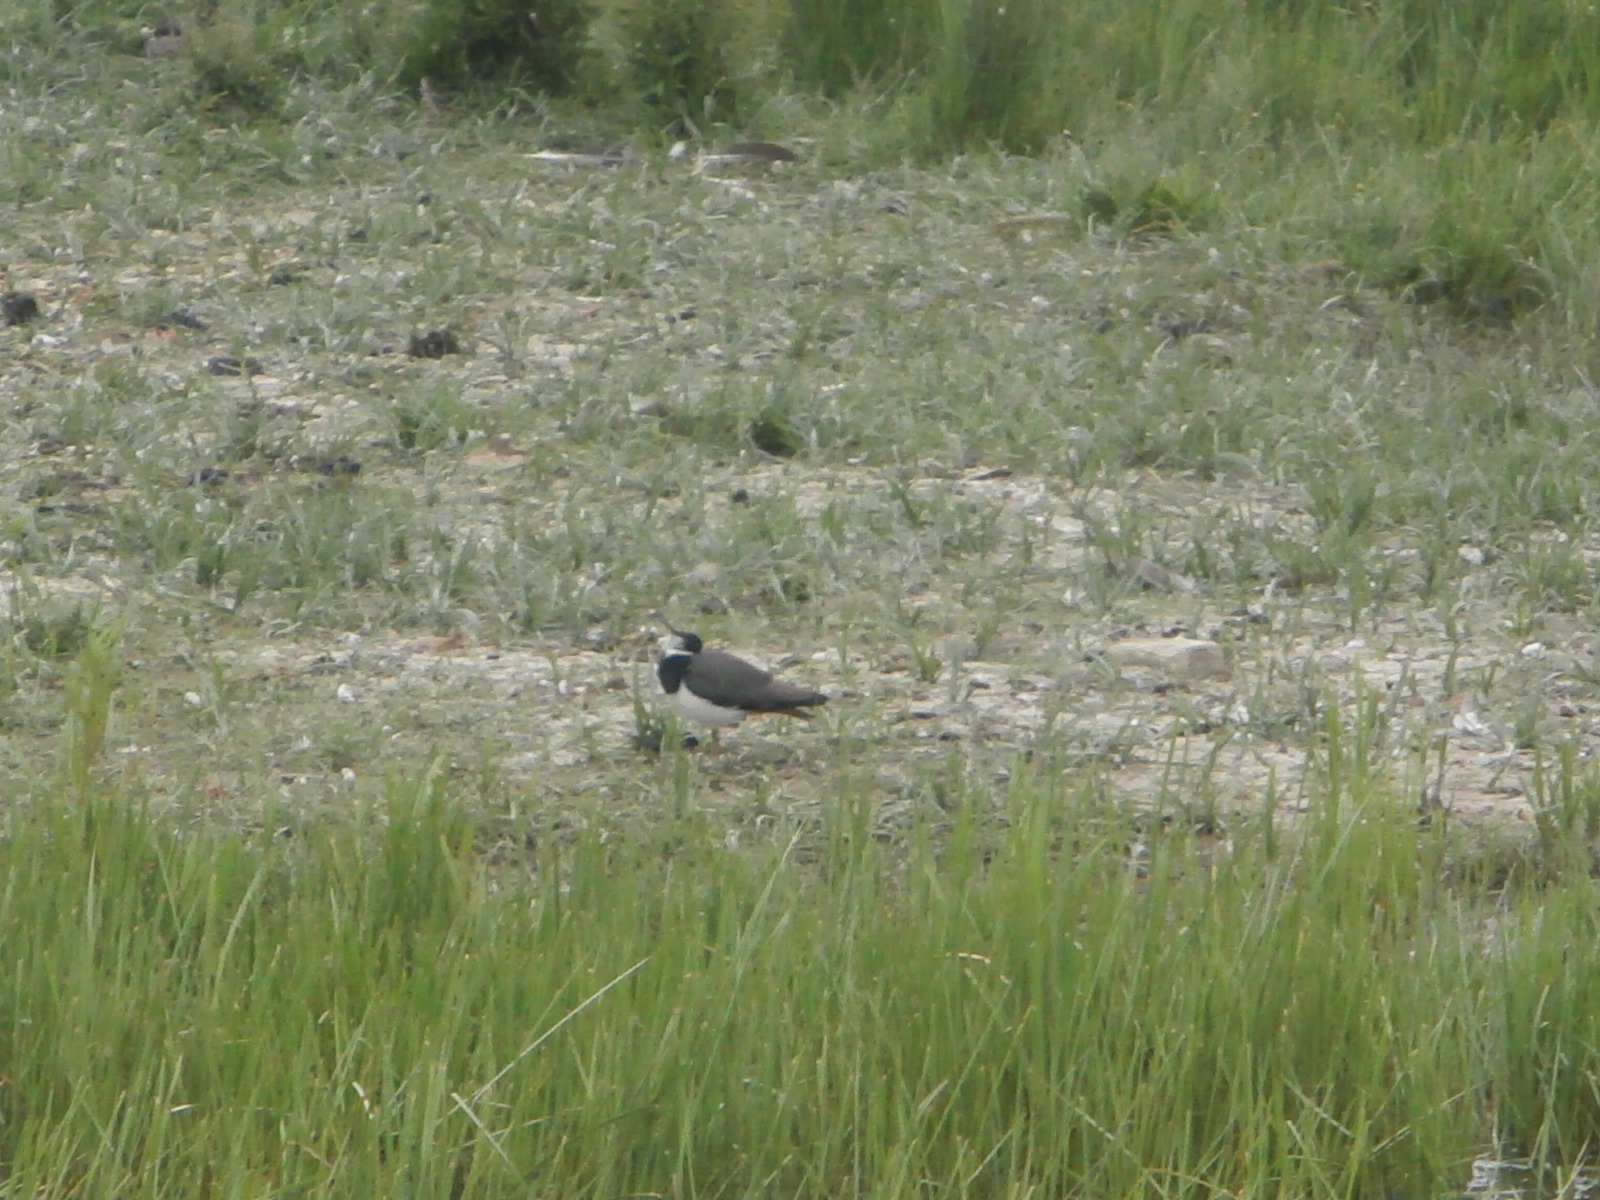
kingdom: Animalia
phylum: Chordata
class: Aves
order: Charadriiformes
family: Charadriidae
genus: Vanellus
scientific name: Vanellus vanellus
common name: Northern lapwing
